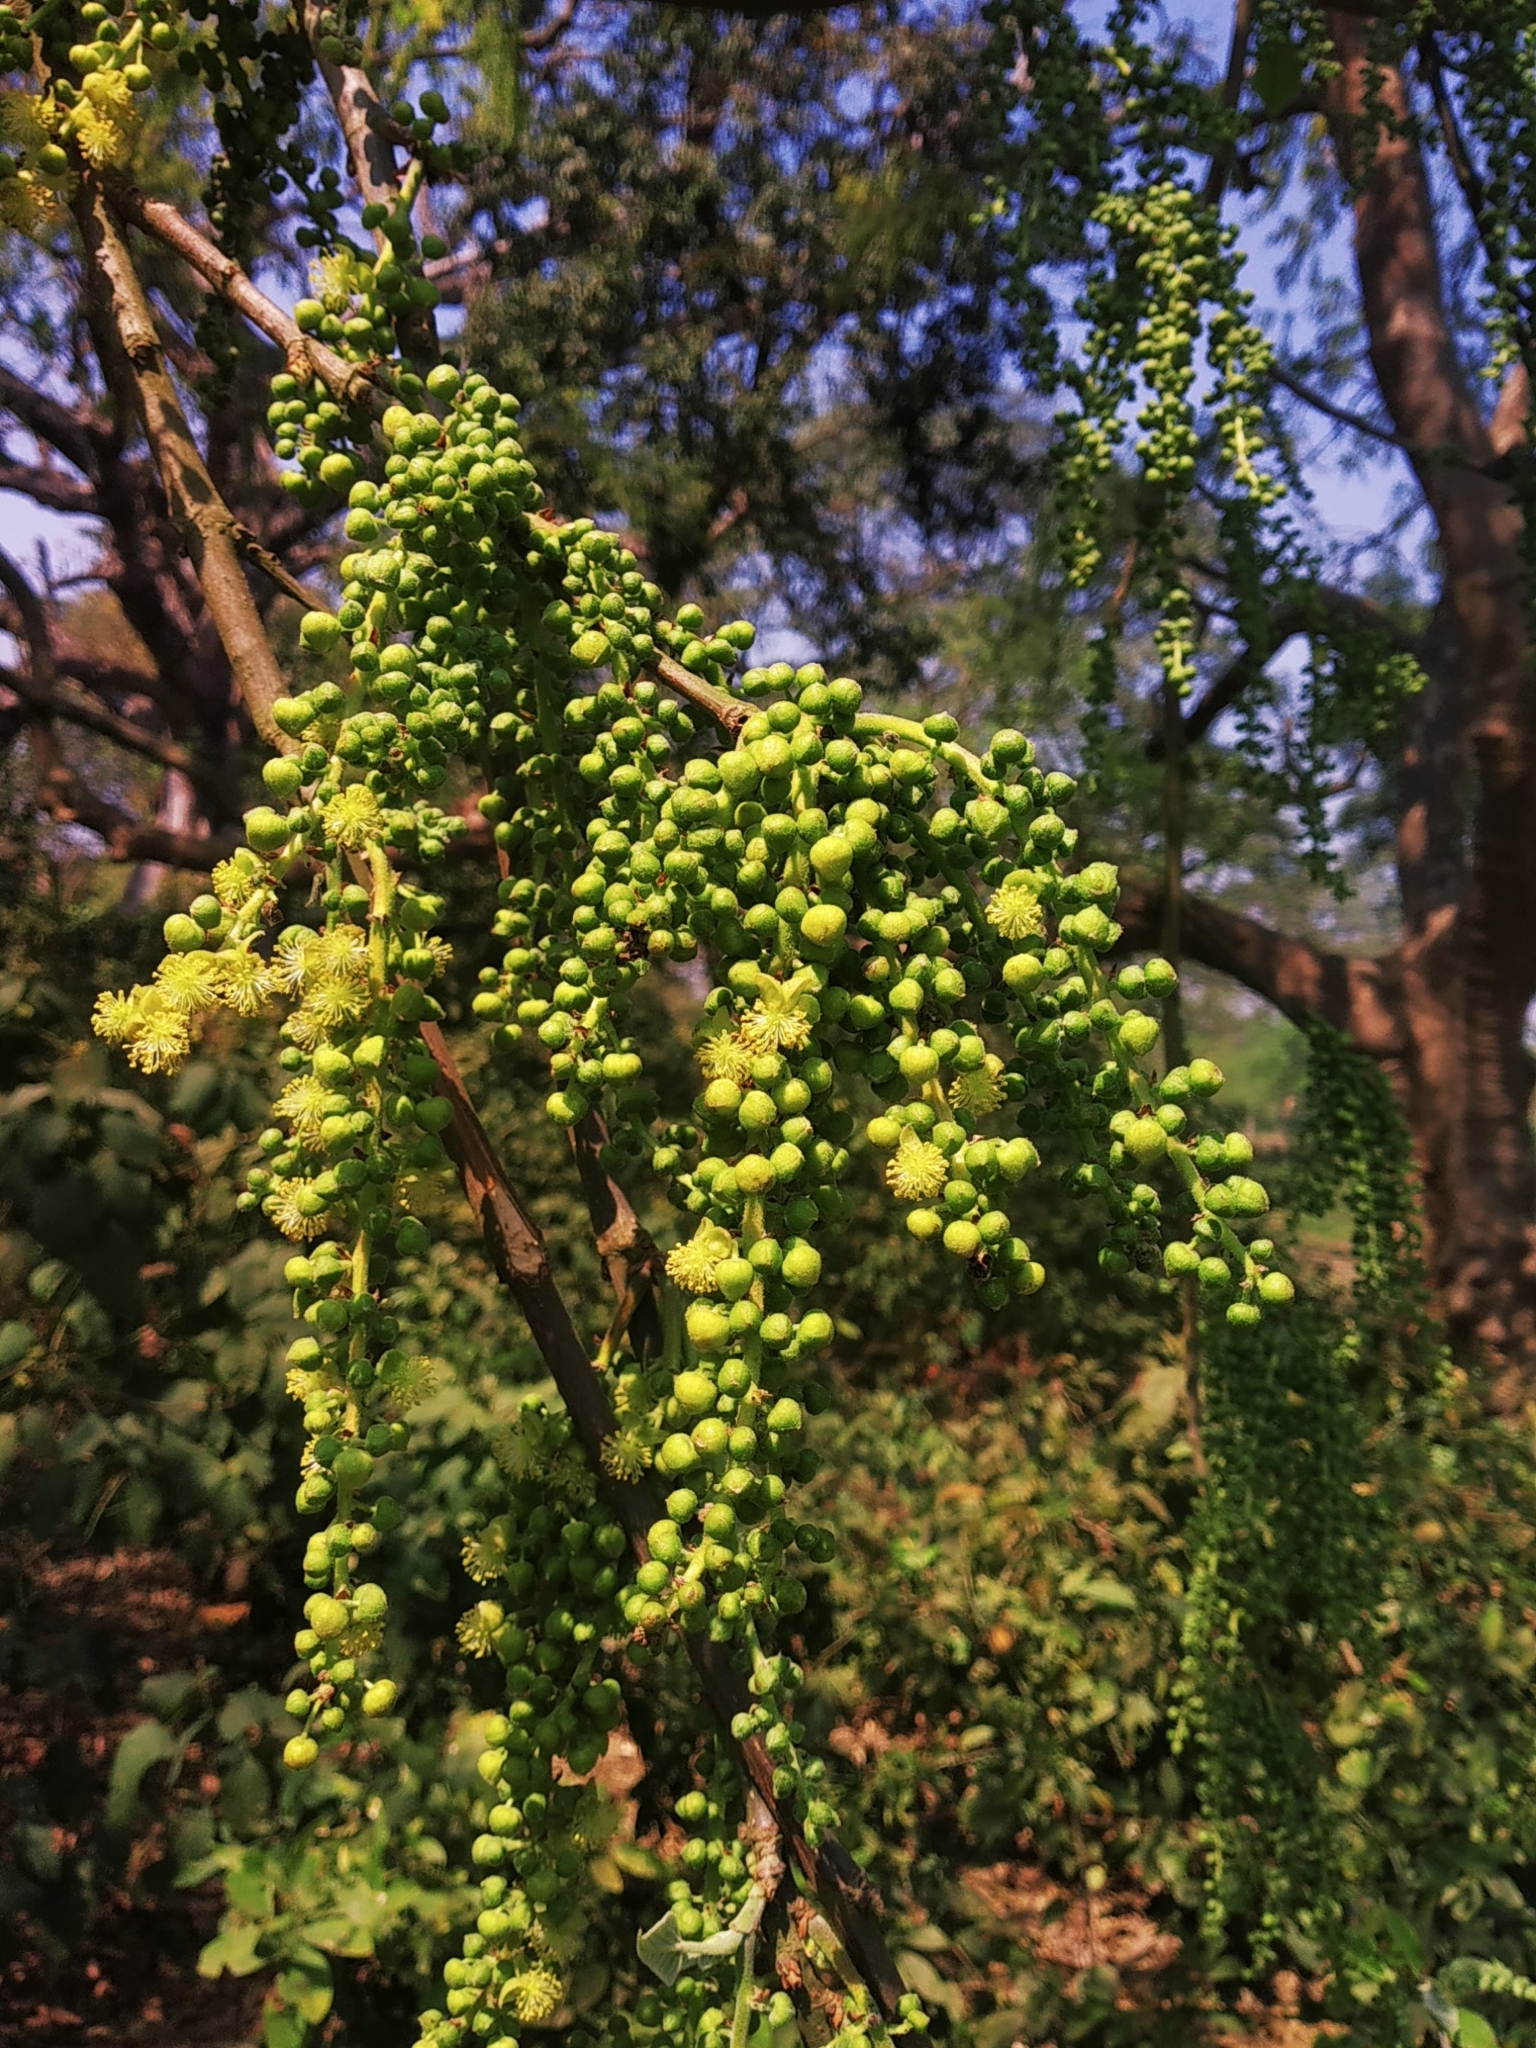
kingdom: Plantae
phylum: Tracheophyta
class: Magnoliopsida
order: Malpighiales
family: Euphorbiaceae
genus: Mallotus
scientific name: Mallotus nudiflorus
